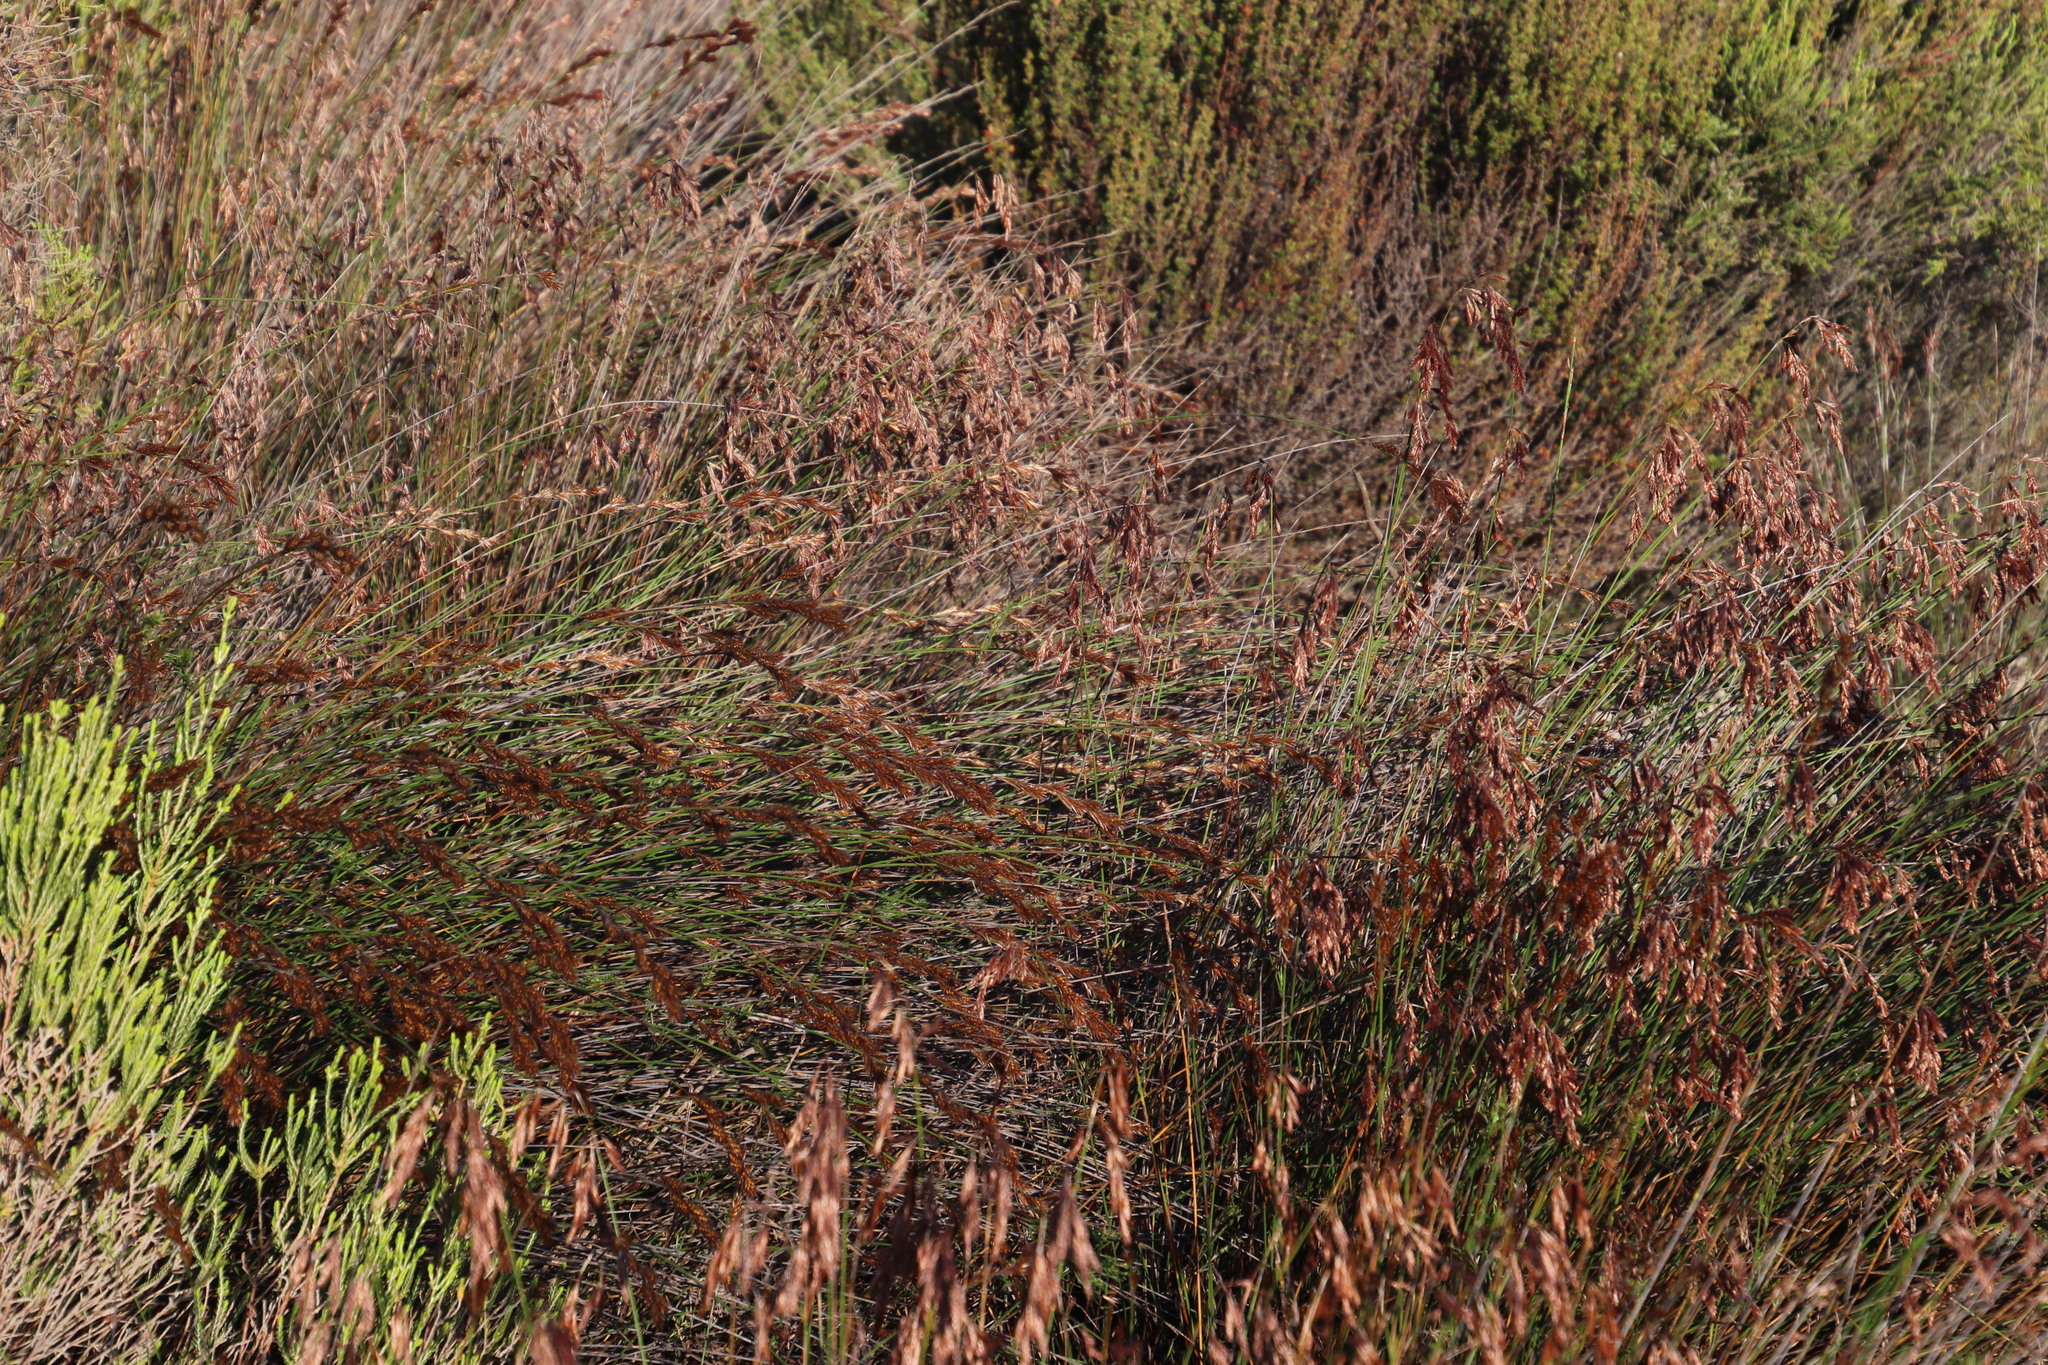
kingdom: Plantae
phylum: Tracheophyta
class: Liliopsida
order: Poales
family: Restionaceae
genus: Thamnochortus
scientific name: Thamnochortus punctatus
